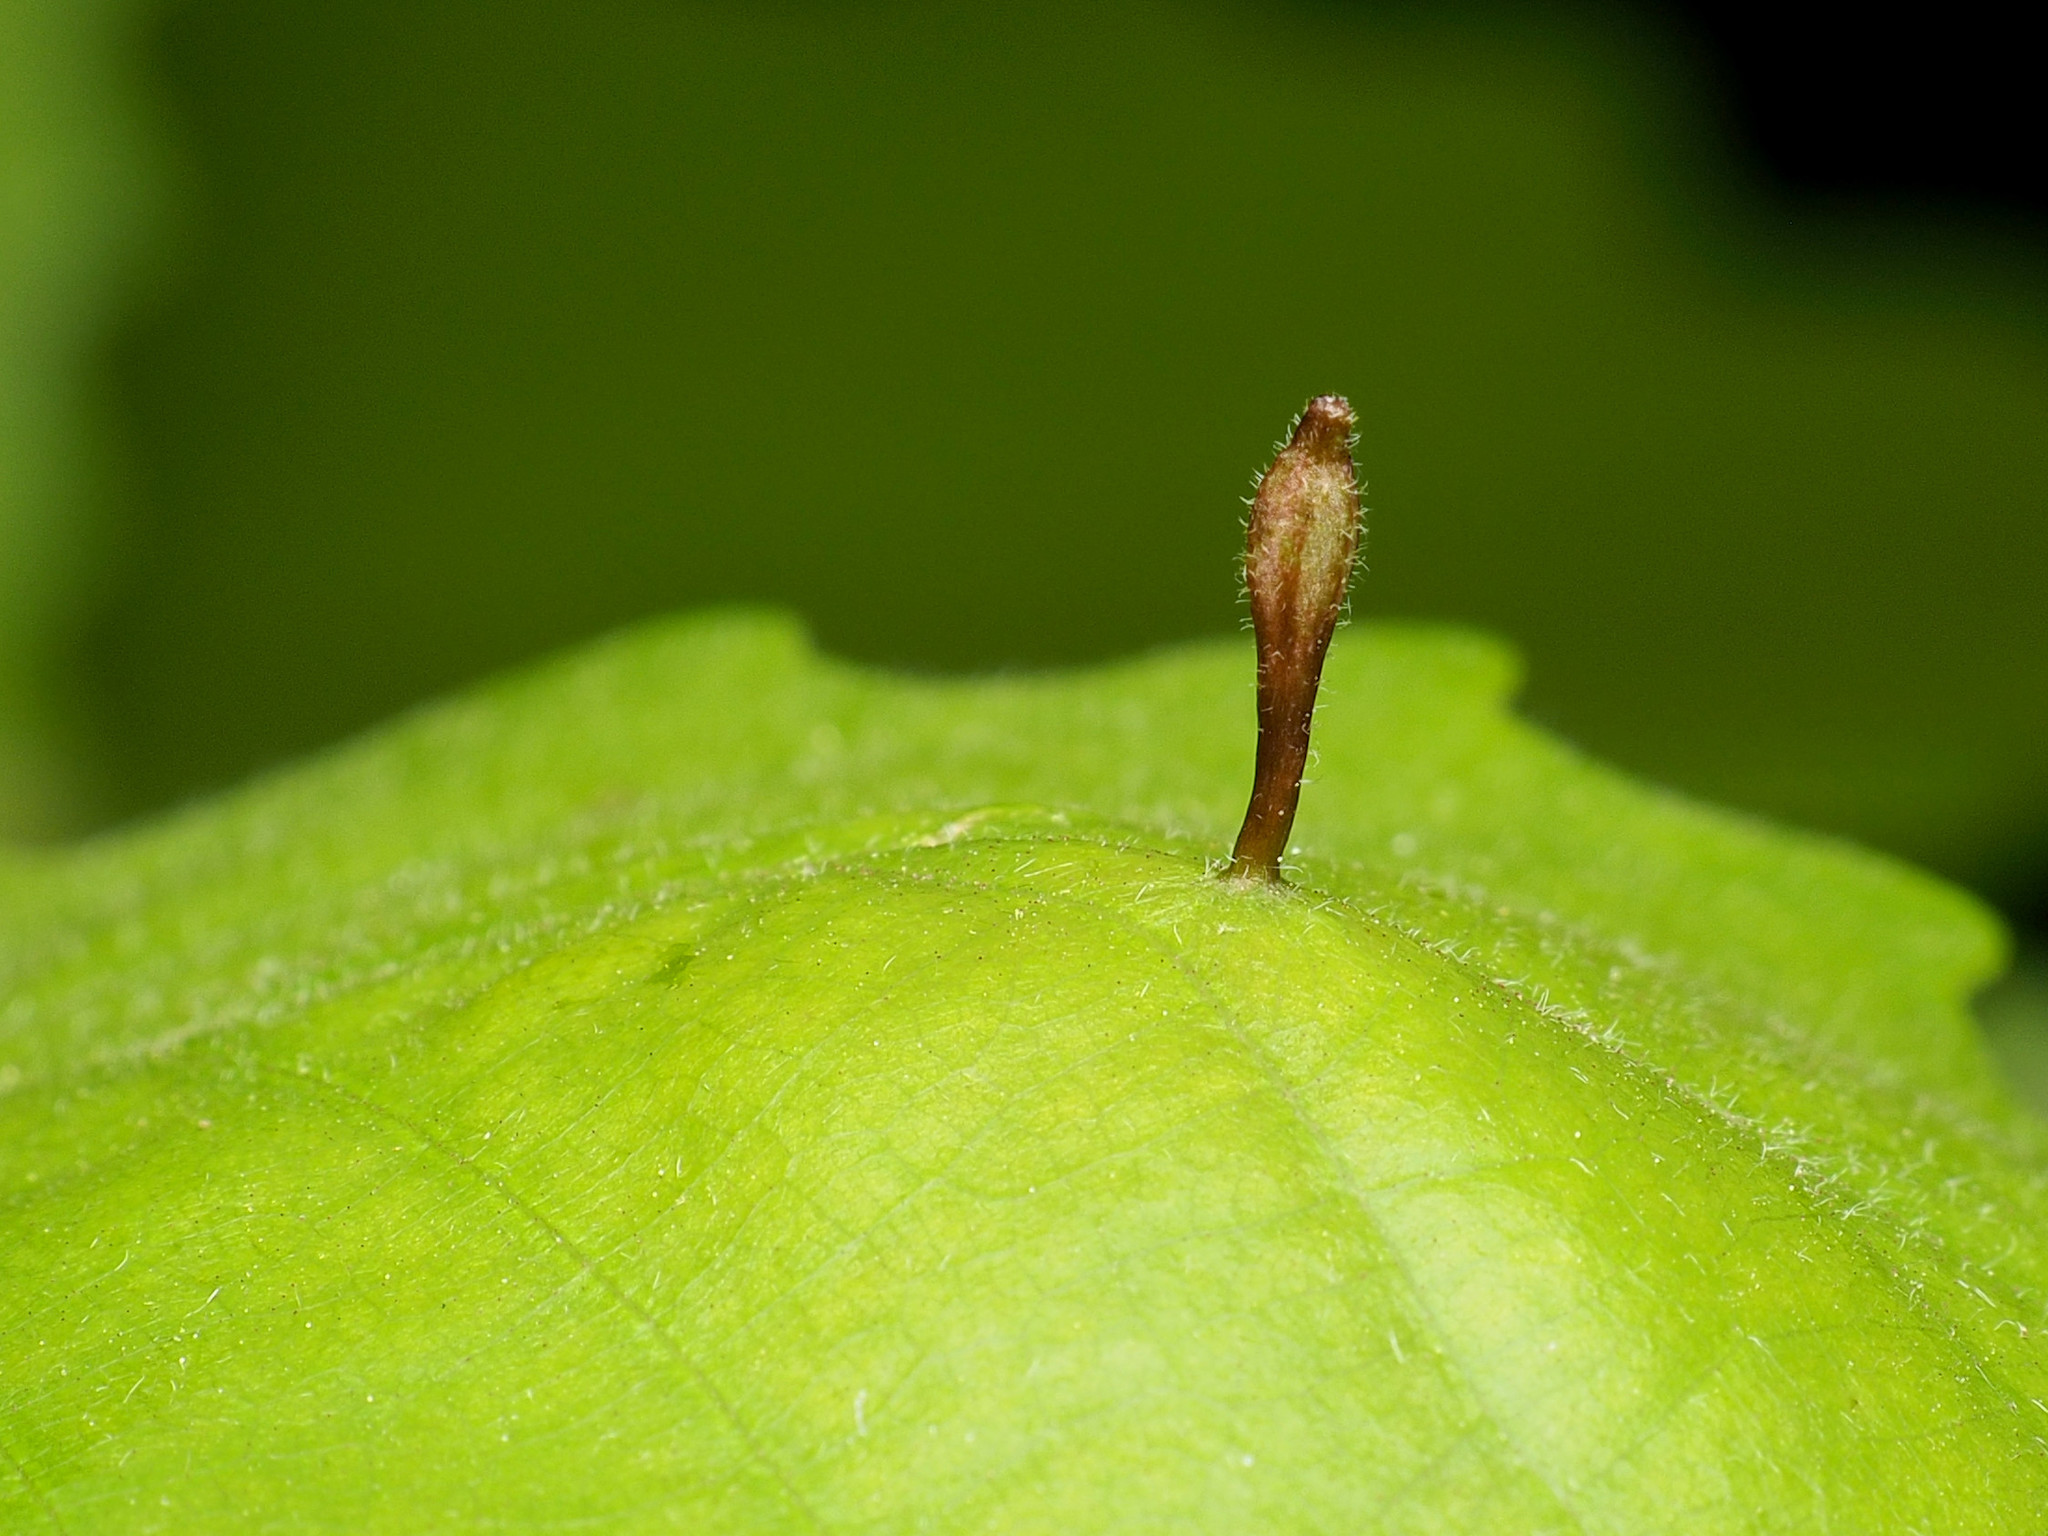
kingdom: Animalia
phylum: Arthropoda
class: Insecta
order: Hymenoptera
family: Cynipidae
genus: Andricus
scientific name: Andricus
